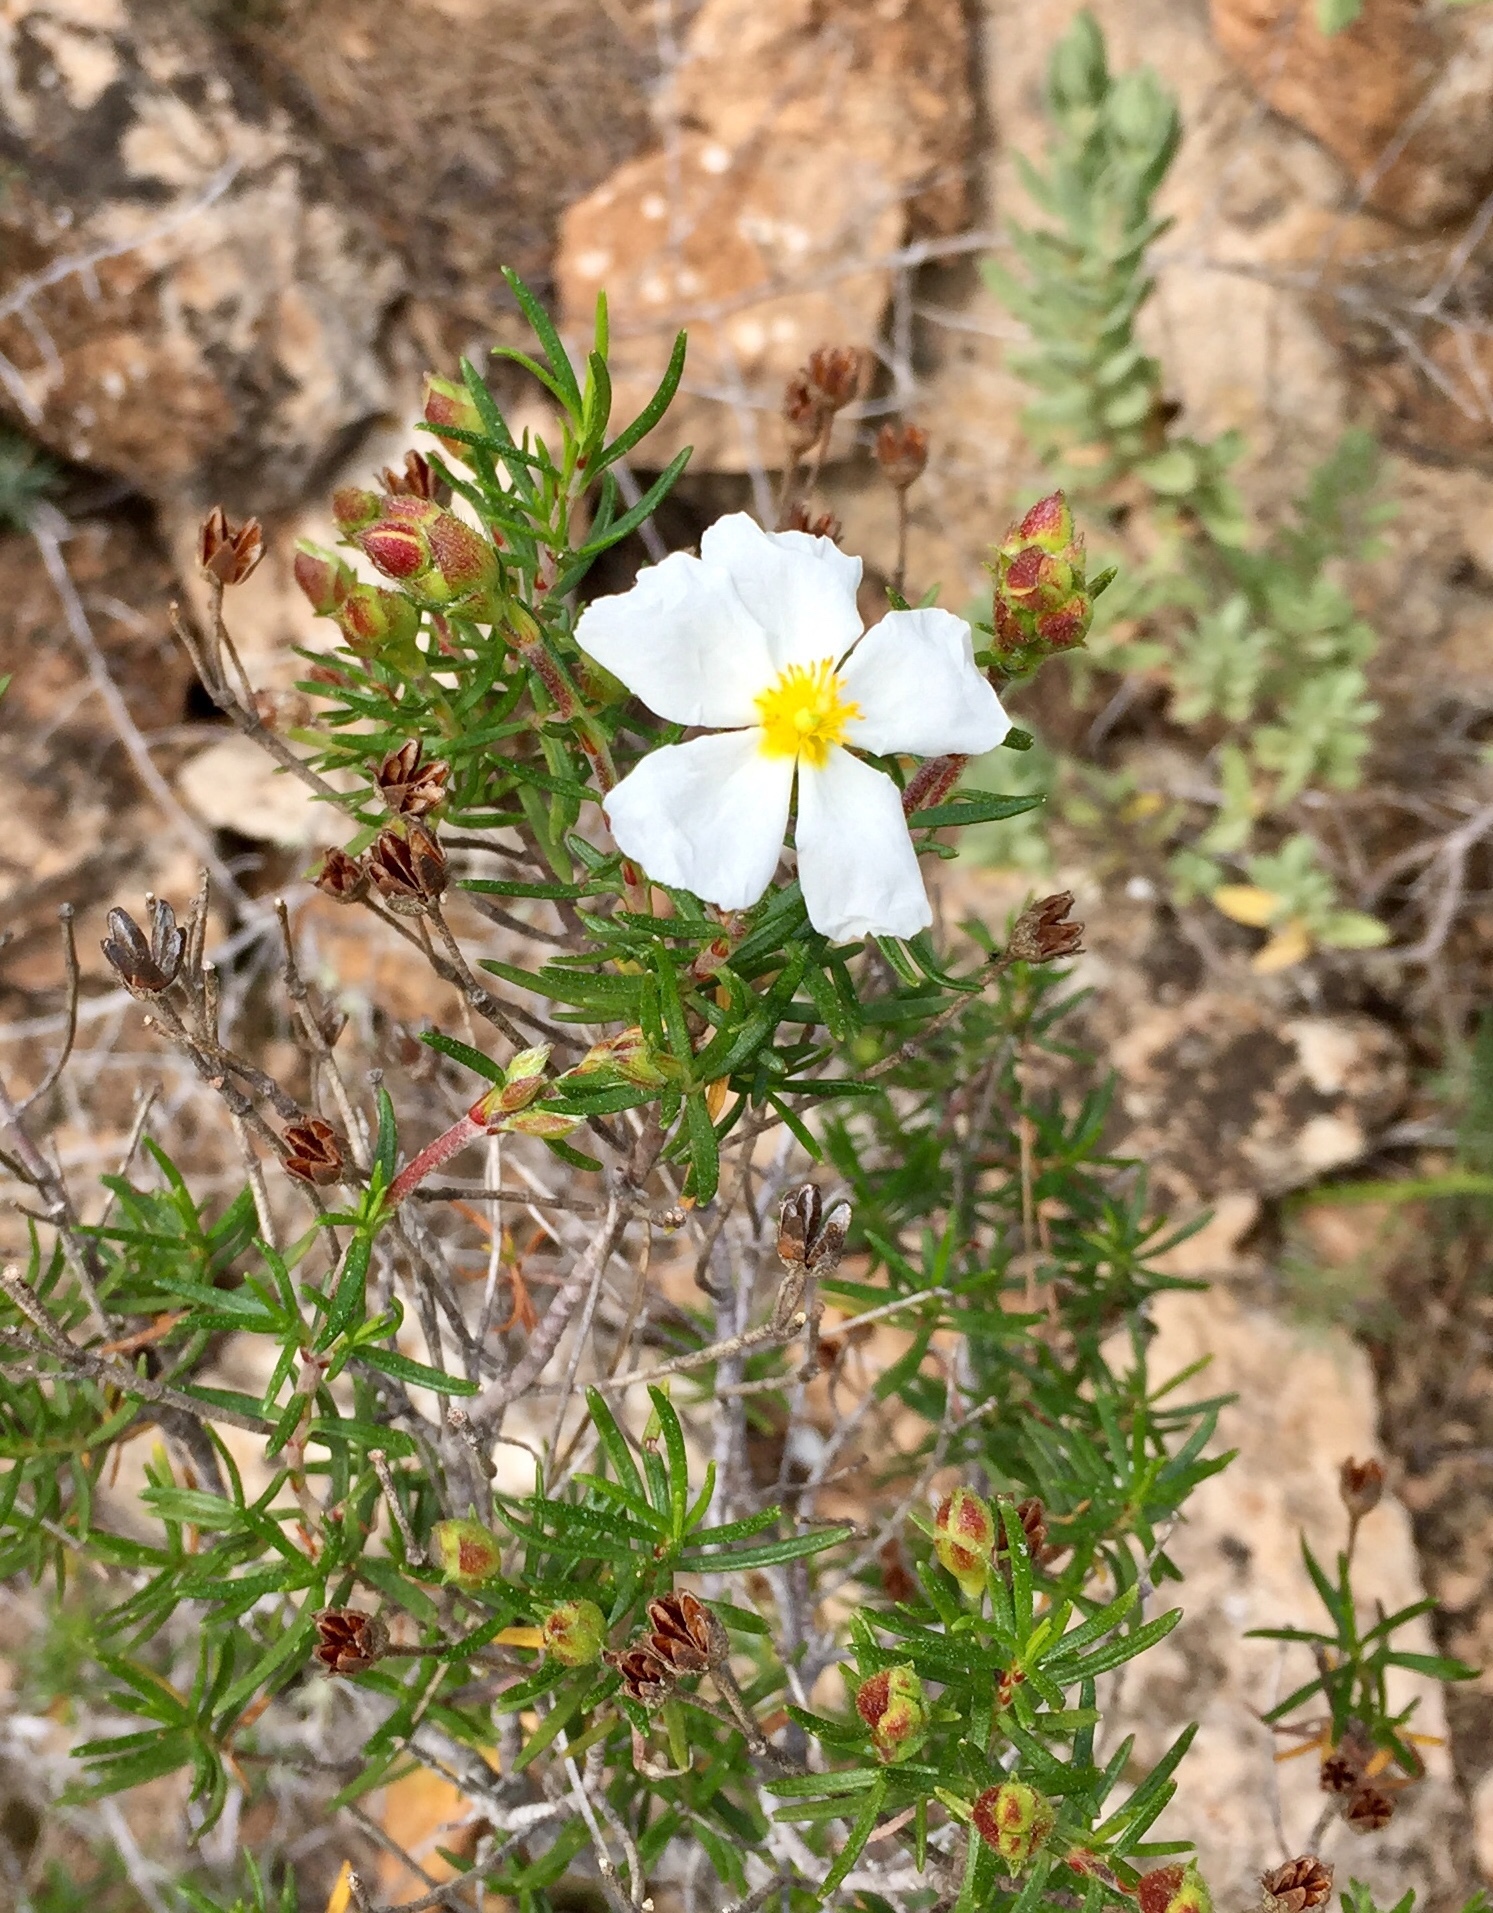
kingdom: Plantae
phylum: Tracheophyta
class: Magnoliopsida
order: Malvales
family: Cistaceae
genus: Cistus
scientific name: Cistus clusii
